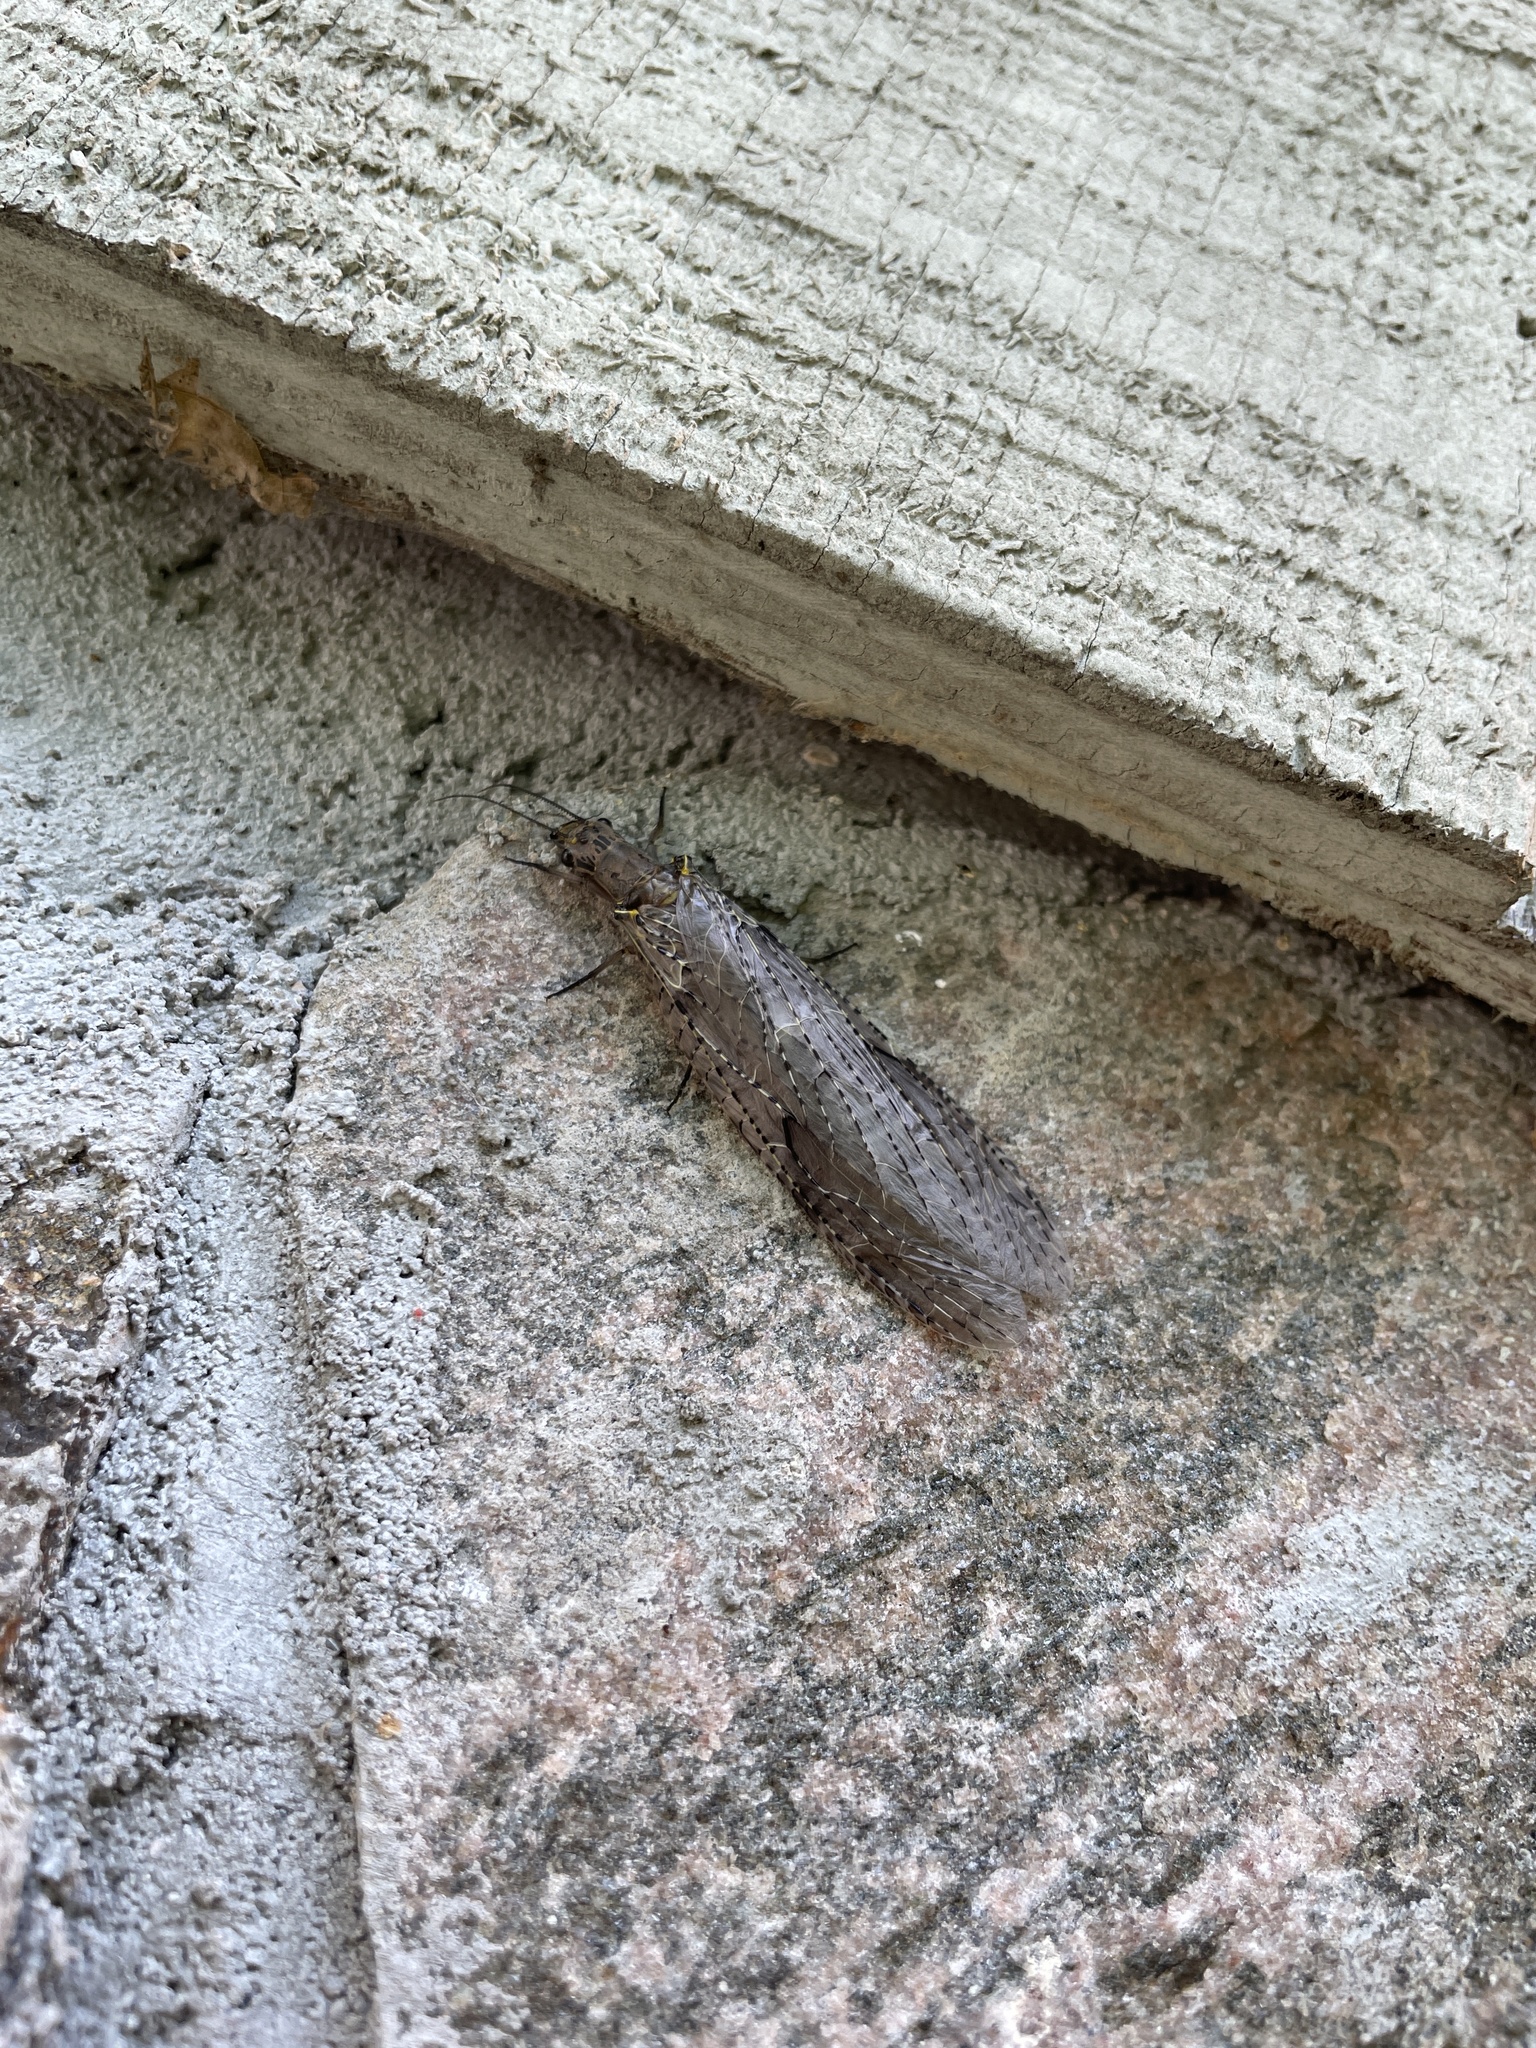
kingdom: Animalia
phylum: Arthropoda
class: Insecta
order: Megaloptera
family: Corydalidae
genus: Chauliodes
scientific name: Chauliodes rastricornis
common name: Spring fishfly
